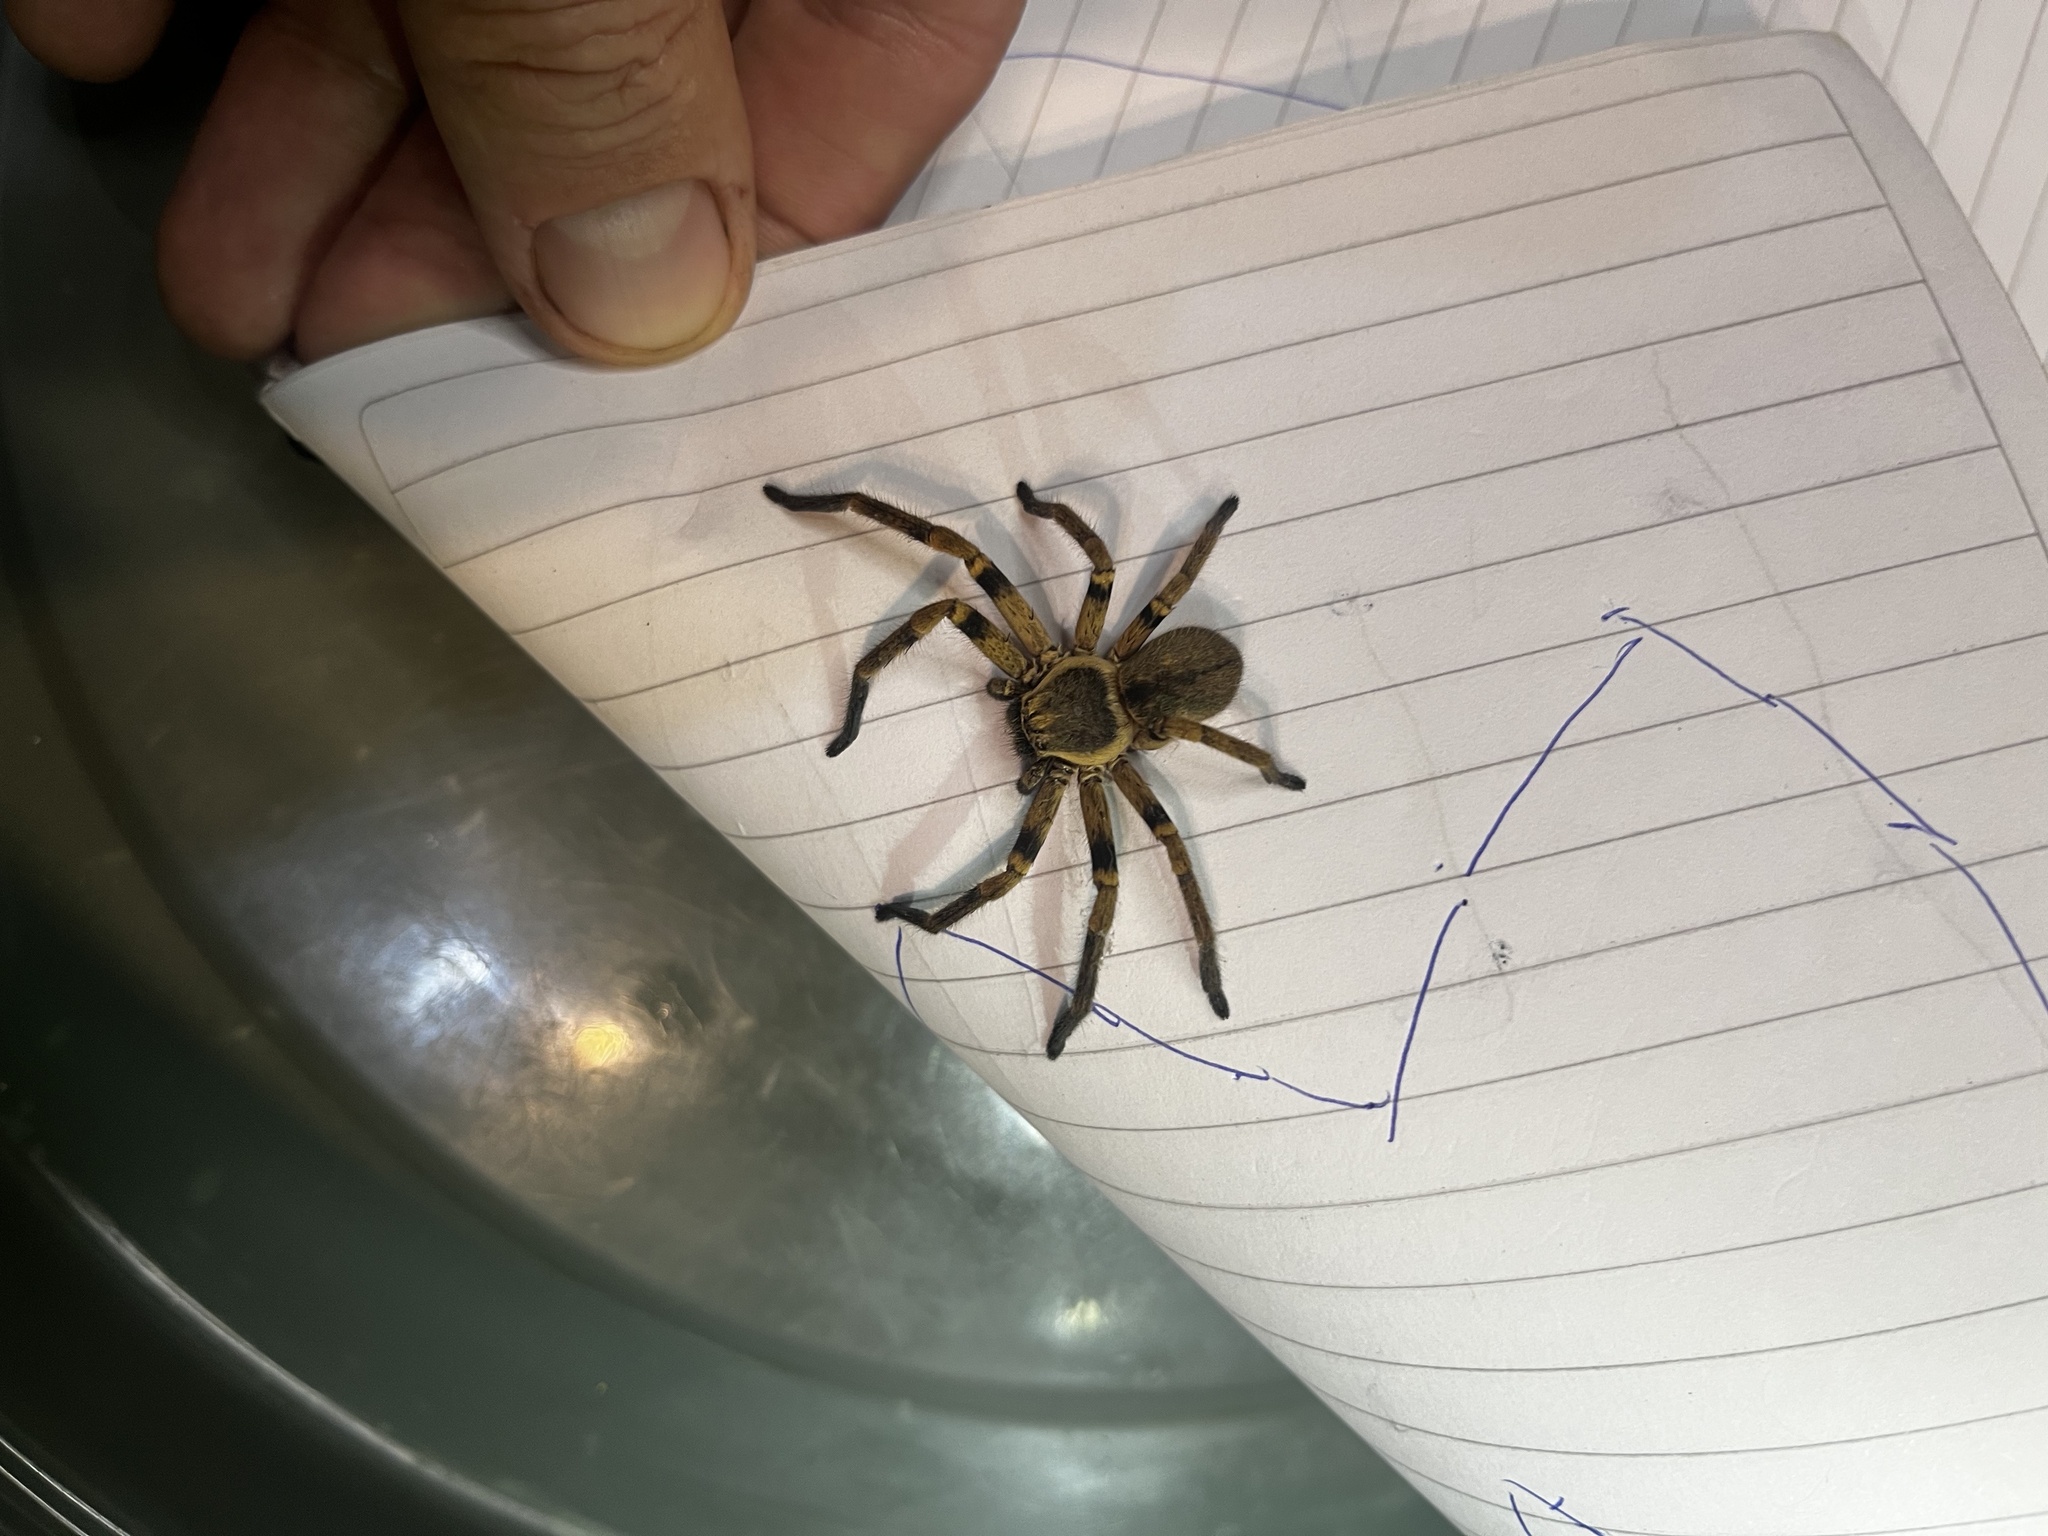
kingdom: Animalia
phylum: Arthropoda
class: Arachnida
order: Araneae
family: Sparassidae
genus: Polybetes
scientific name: Polybetes pythagoricus
